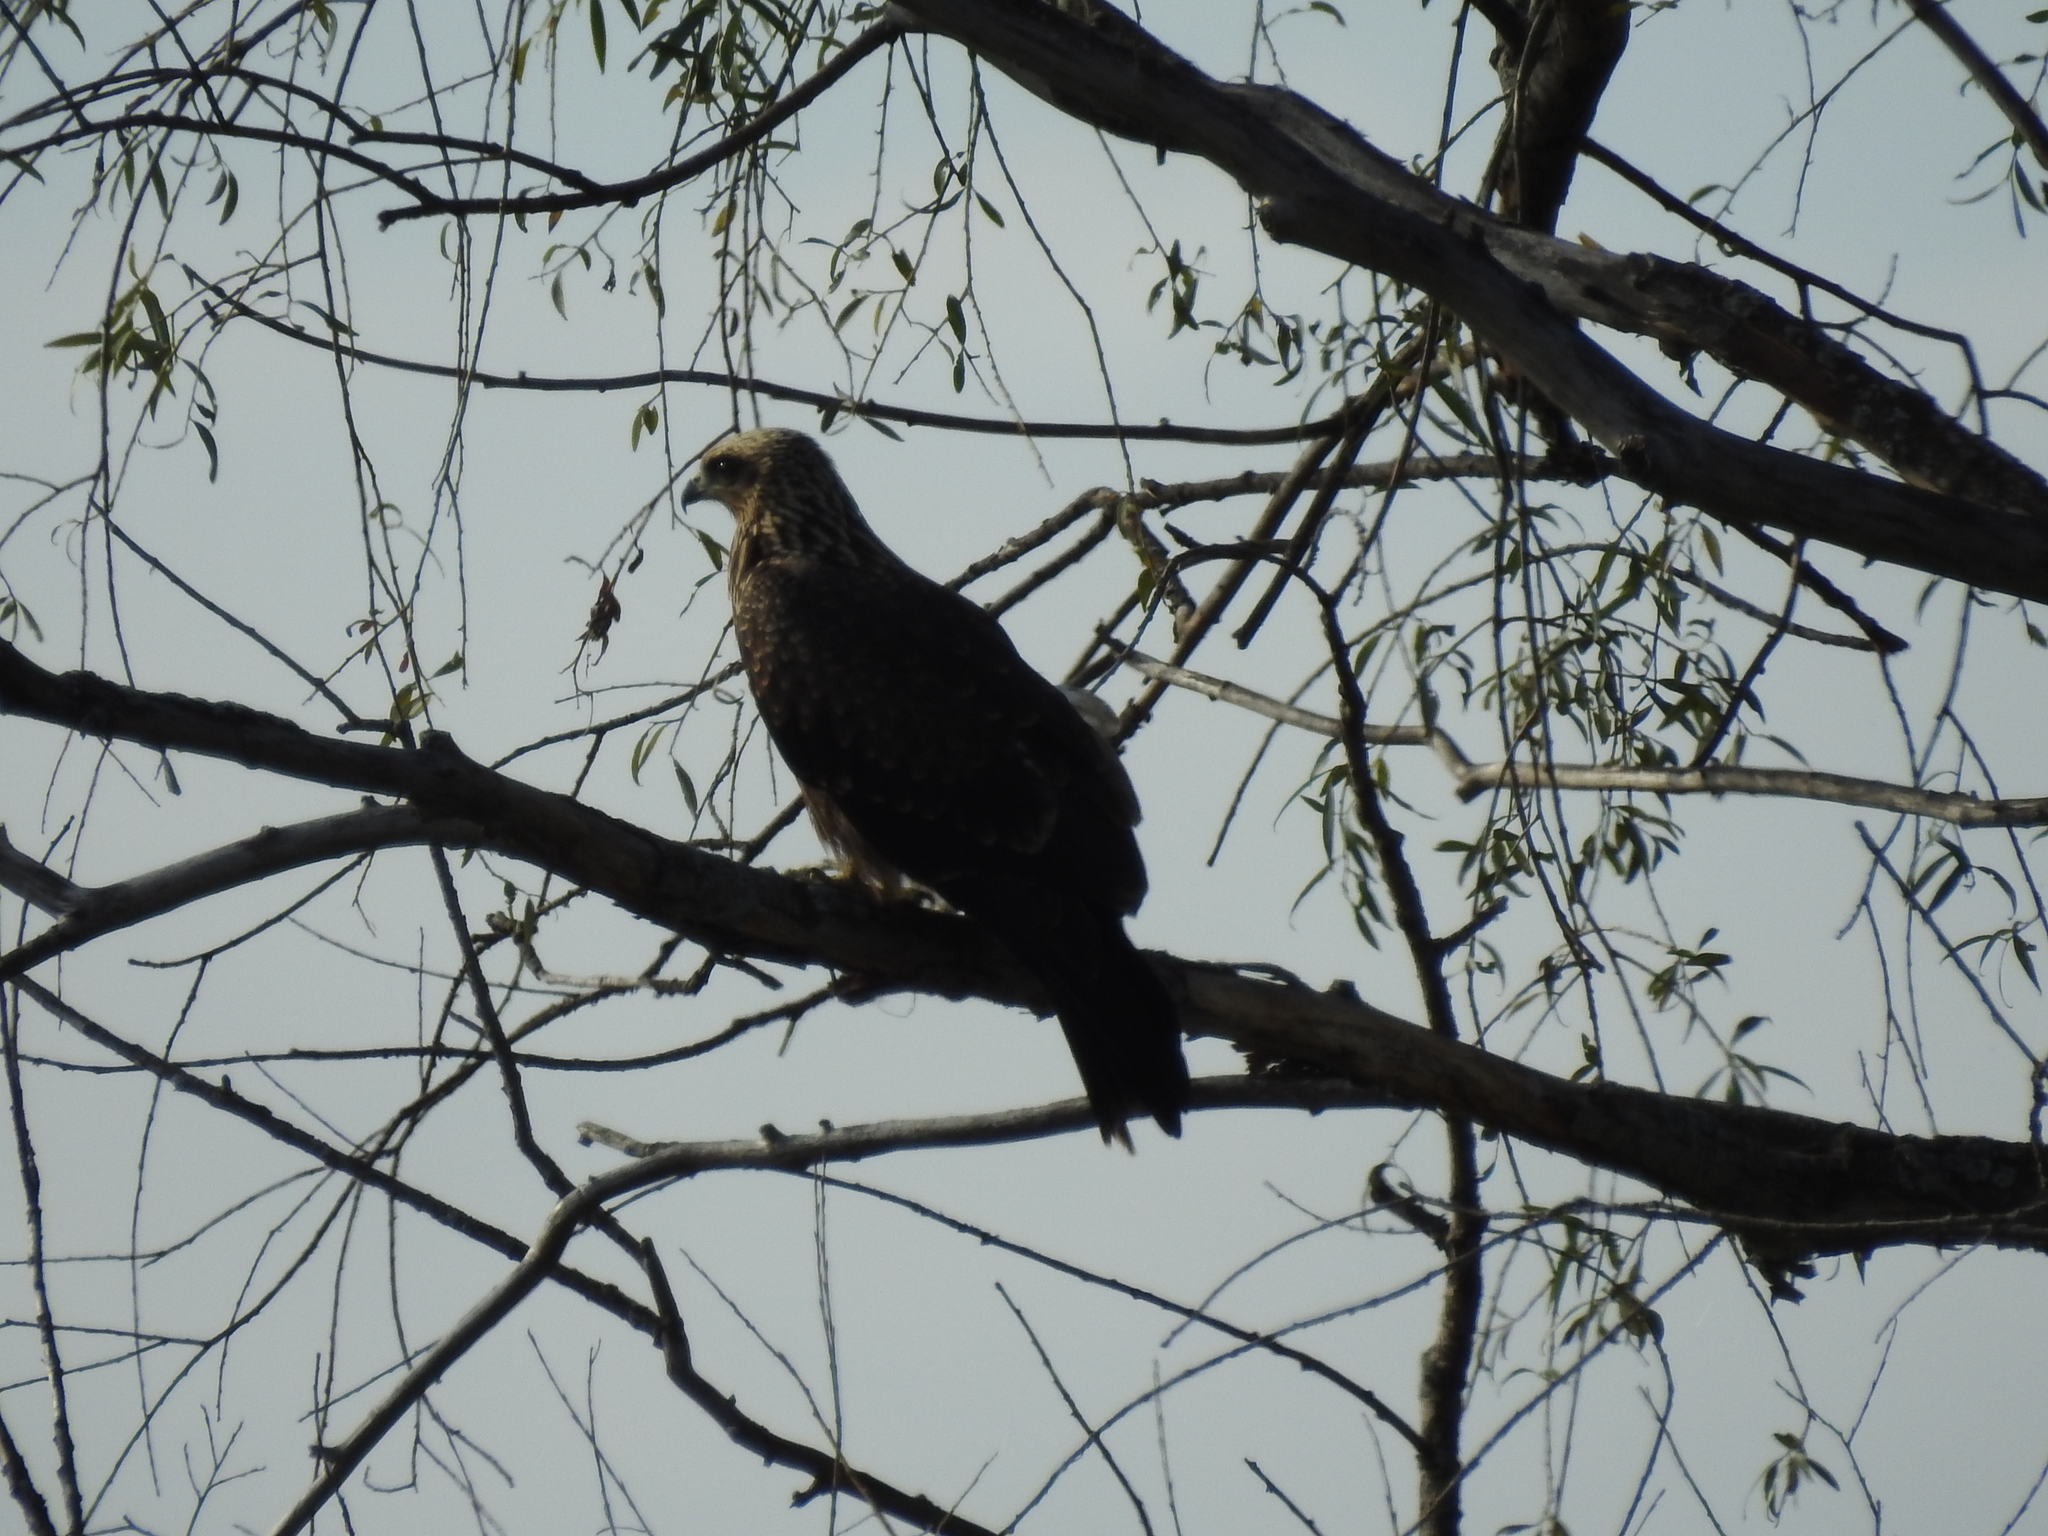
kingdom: Animalia
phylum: Chordata
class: Aves
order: Accipitriformes
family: Accipitridae
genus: Milvus
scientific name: Milvus migrans
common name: Black kite
